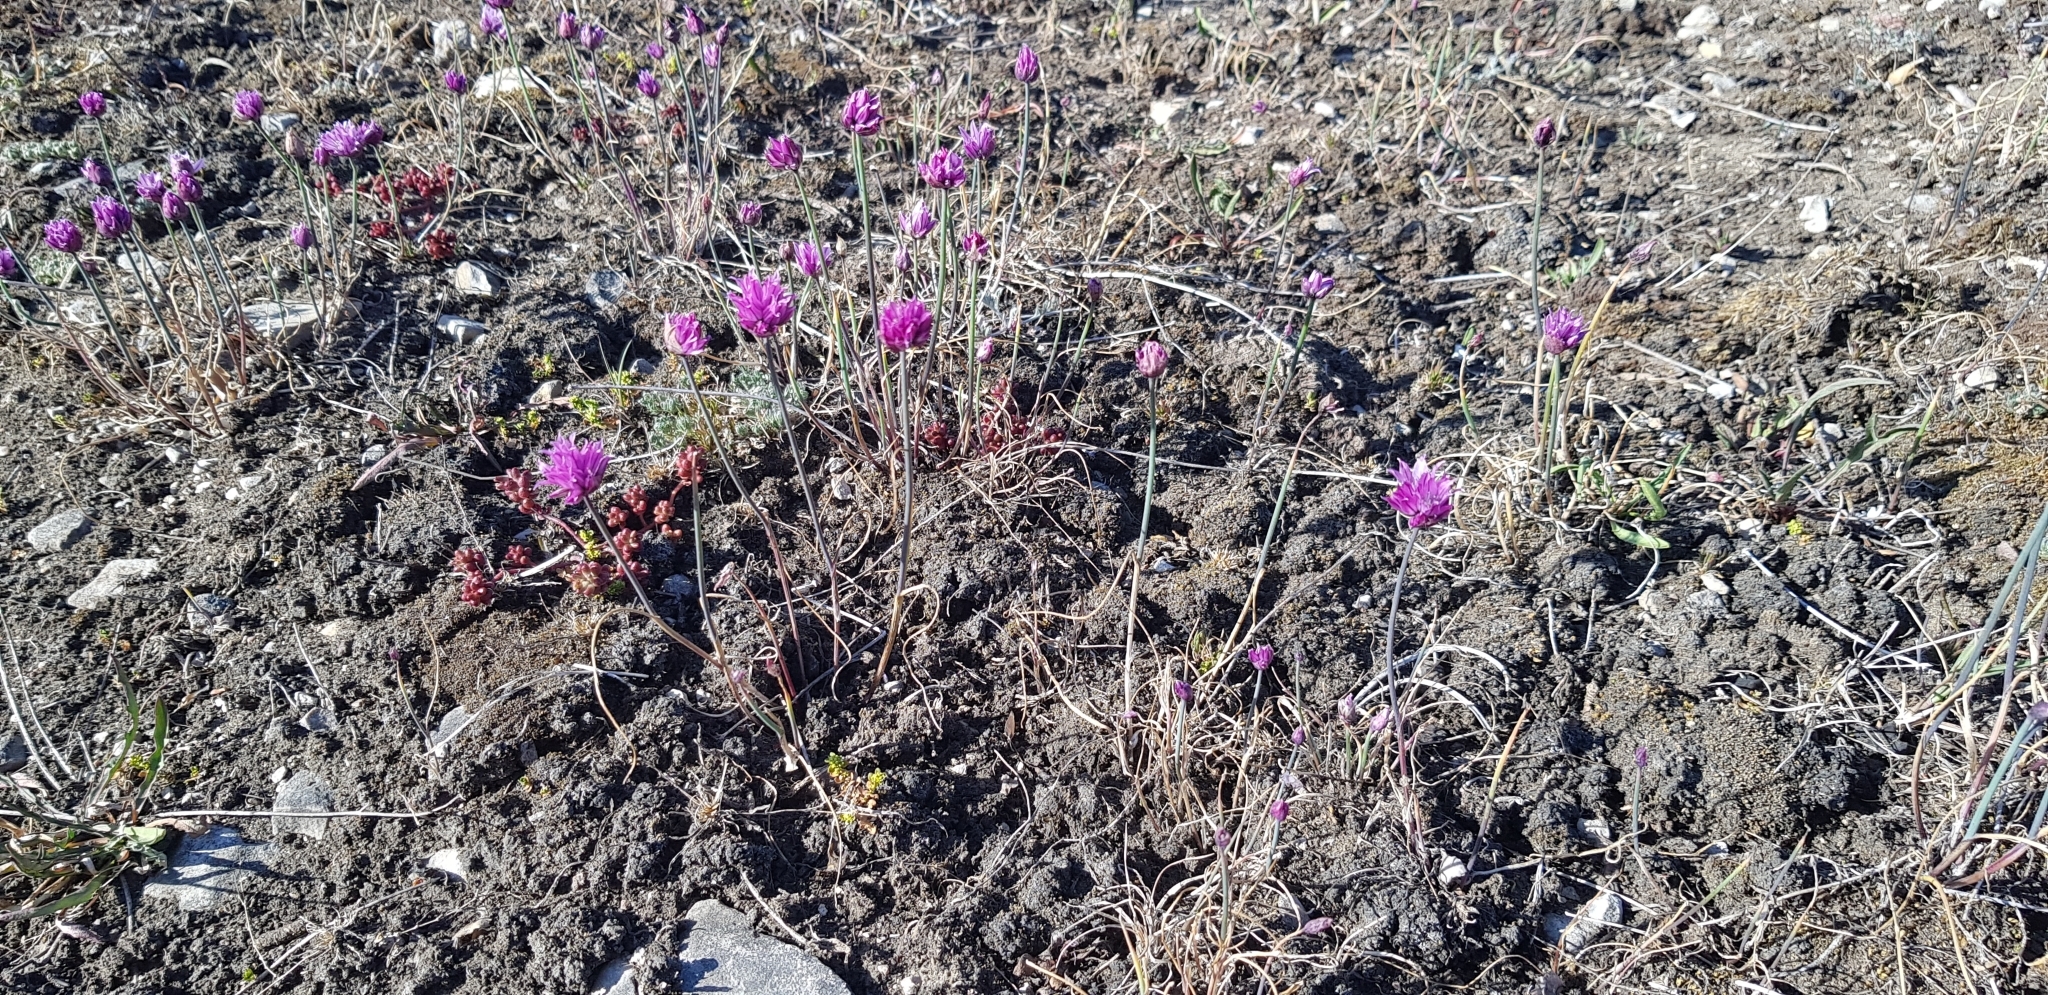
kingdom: Plantae
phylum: Tracheophyta
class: Liliopsida
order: Asparagales
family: Amaryllidaceae
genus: Allium
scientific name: Allium schoenoprasum
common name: Chives
